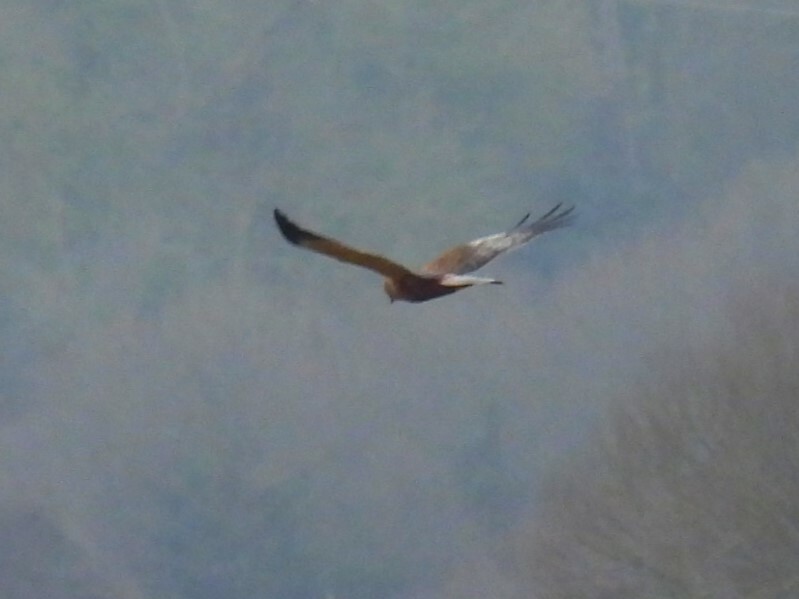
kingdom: Animalia
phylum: Chordata
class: Aves
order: Accipitriformes
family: Accipitridae
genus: Circus
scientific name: Circus aeruginosus
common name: Western marsh harrier
